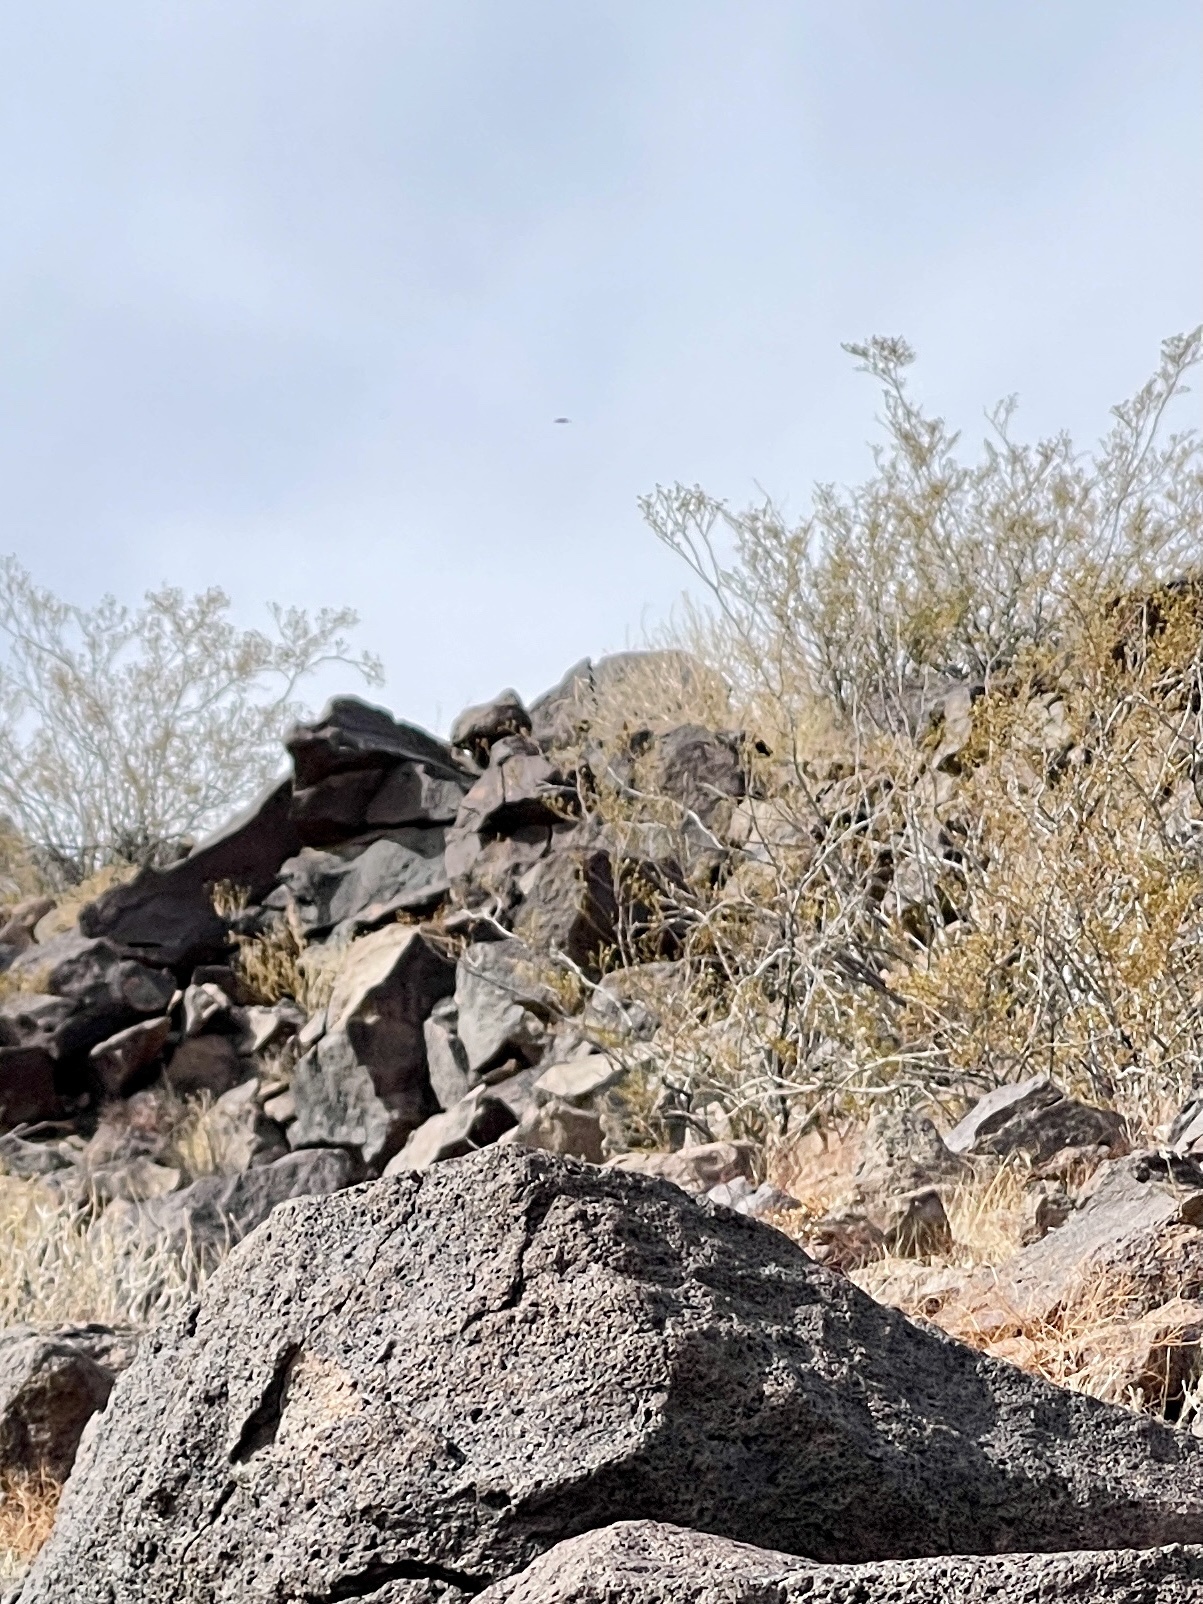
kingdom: Plantae
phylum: Tracheophyta
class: Magnoliopsida
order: Zygophyllales
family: Zygophyllaceae
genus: Larrea
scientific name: Larrea tridentata
